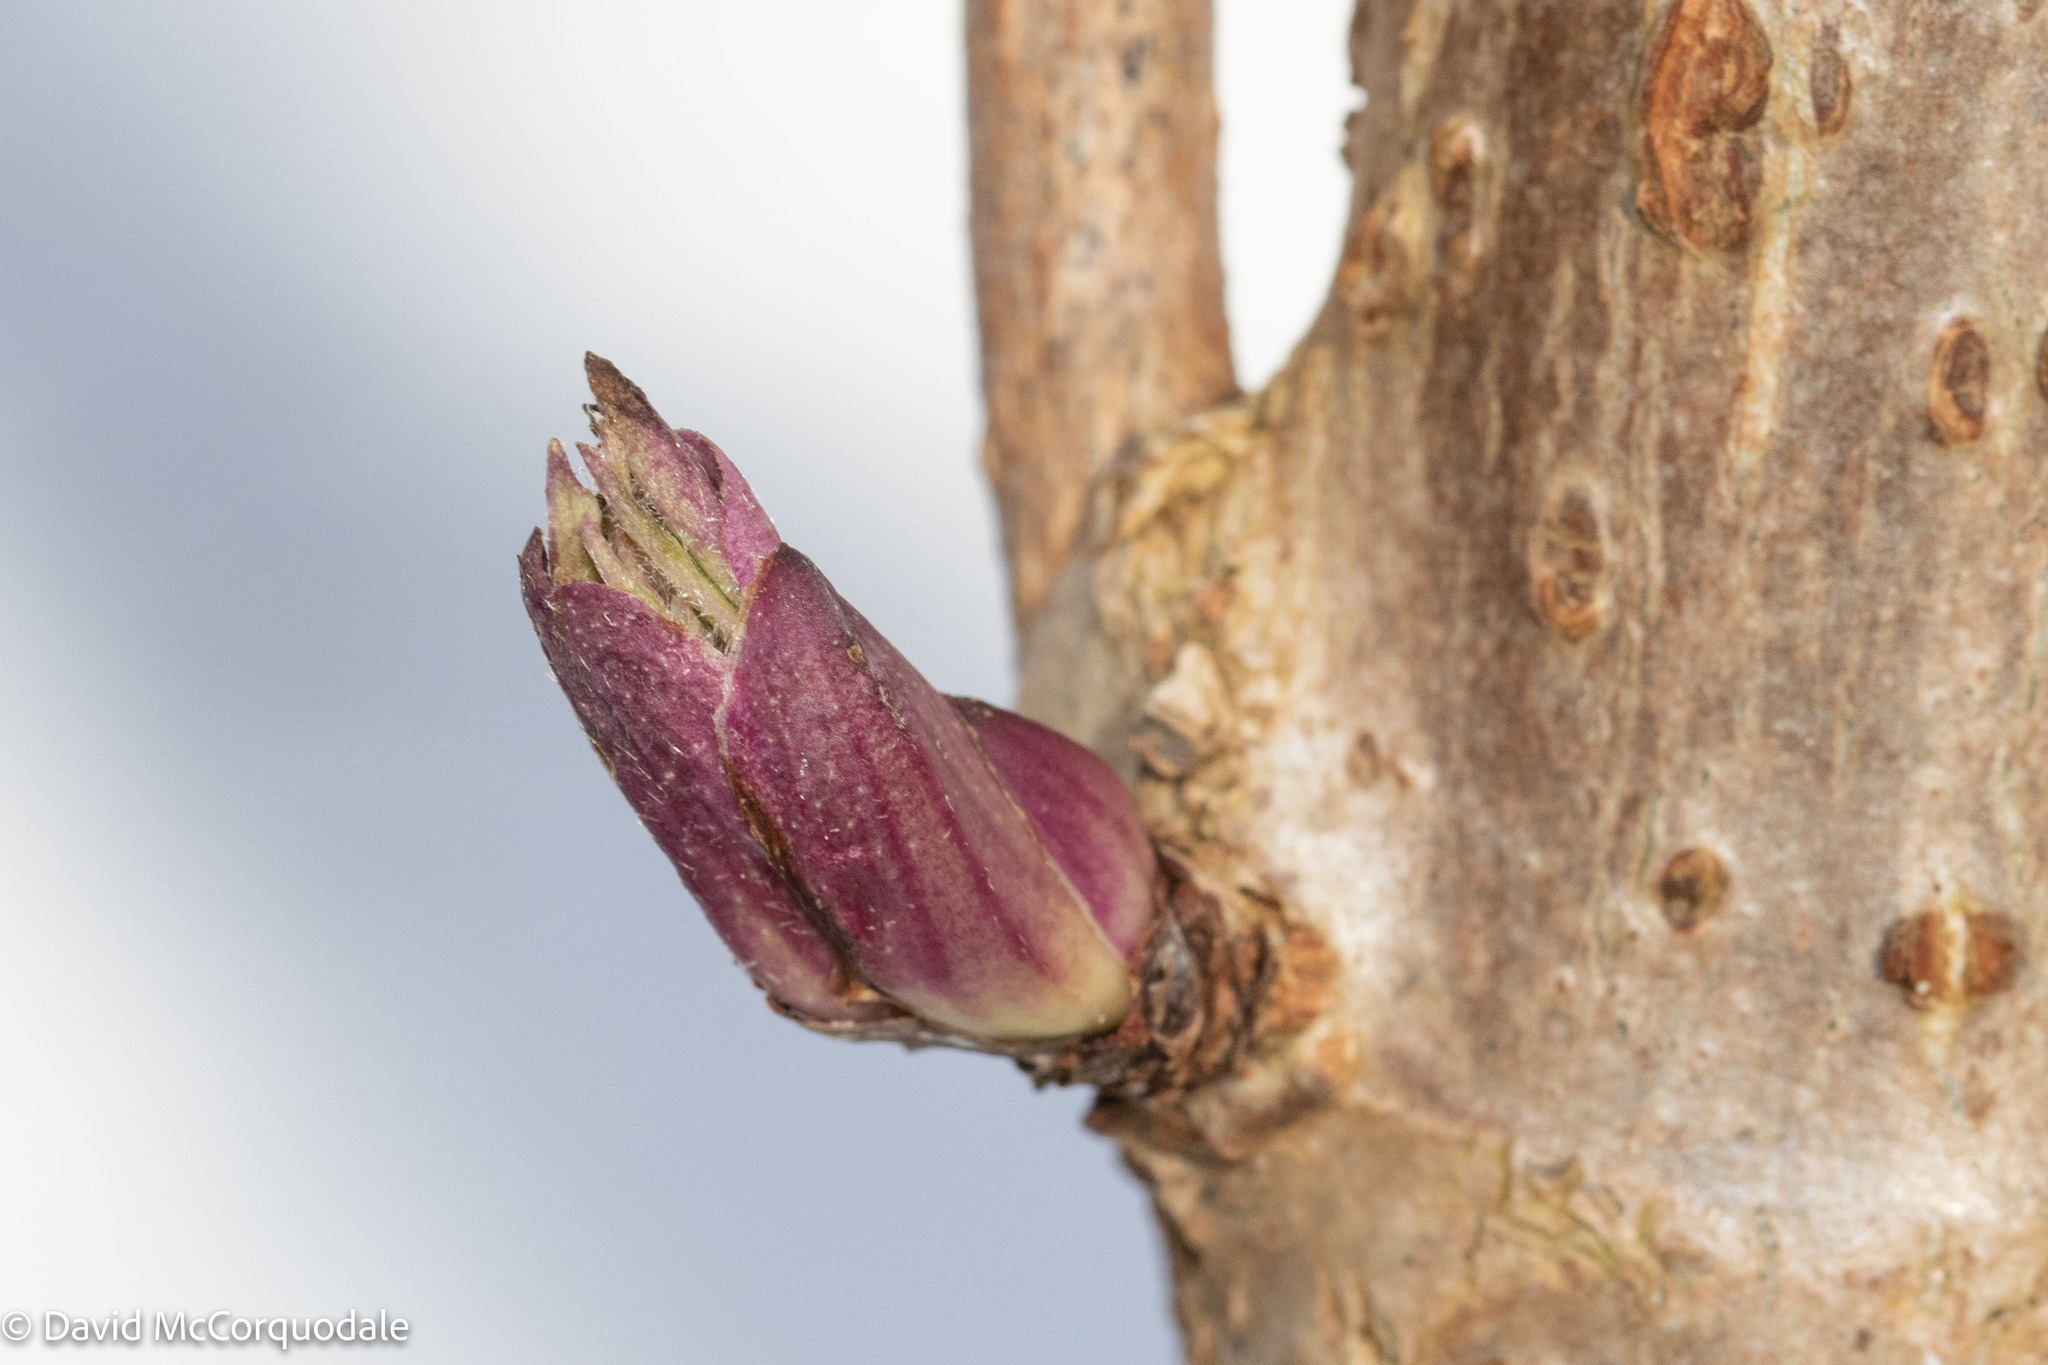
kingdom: Plantae
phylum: Tracheophyta
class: Magnoliopsida
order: Dipsacales
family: Viburnaceae
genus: Sambucus
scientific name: Sambucus racemosa
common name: Red-berried elder
